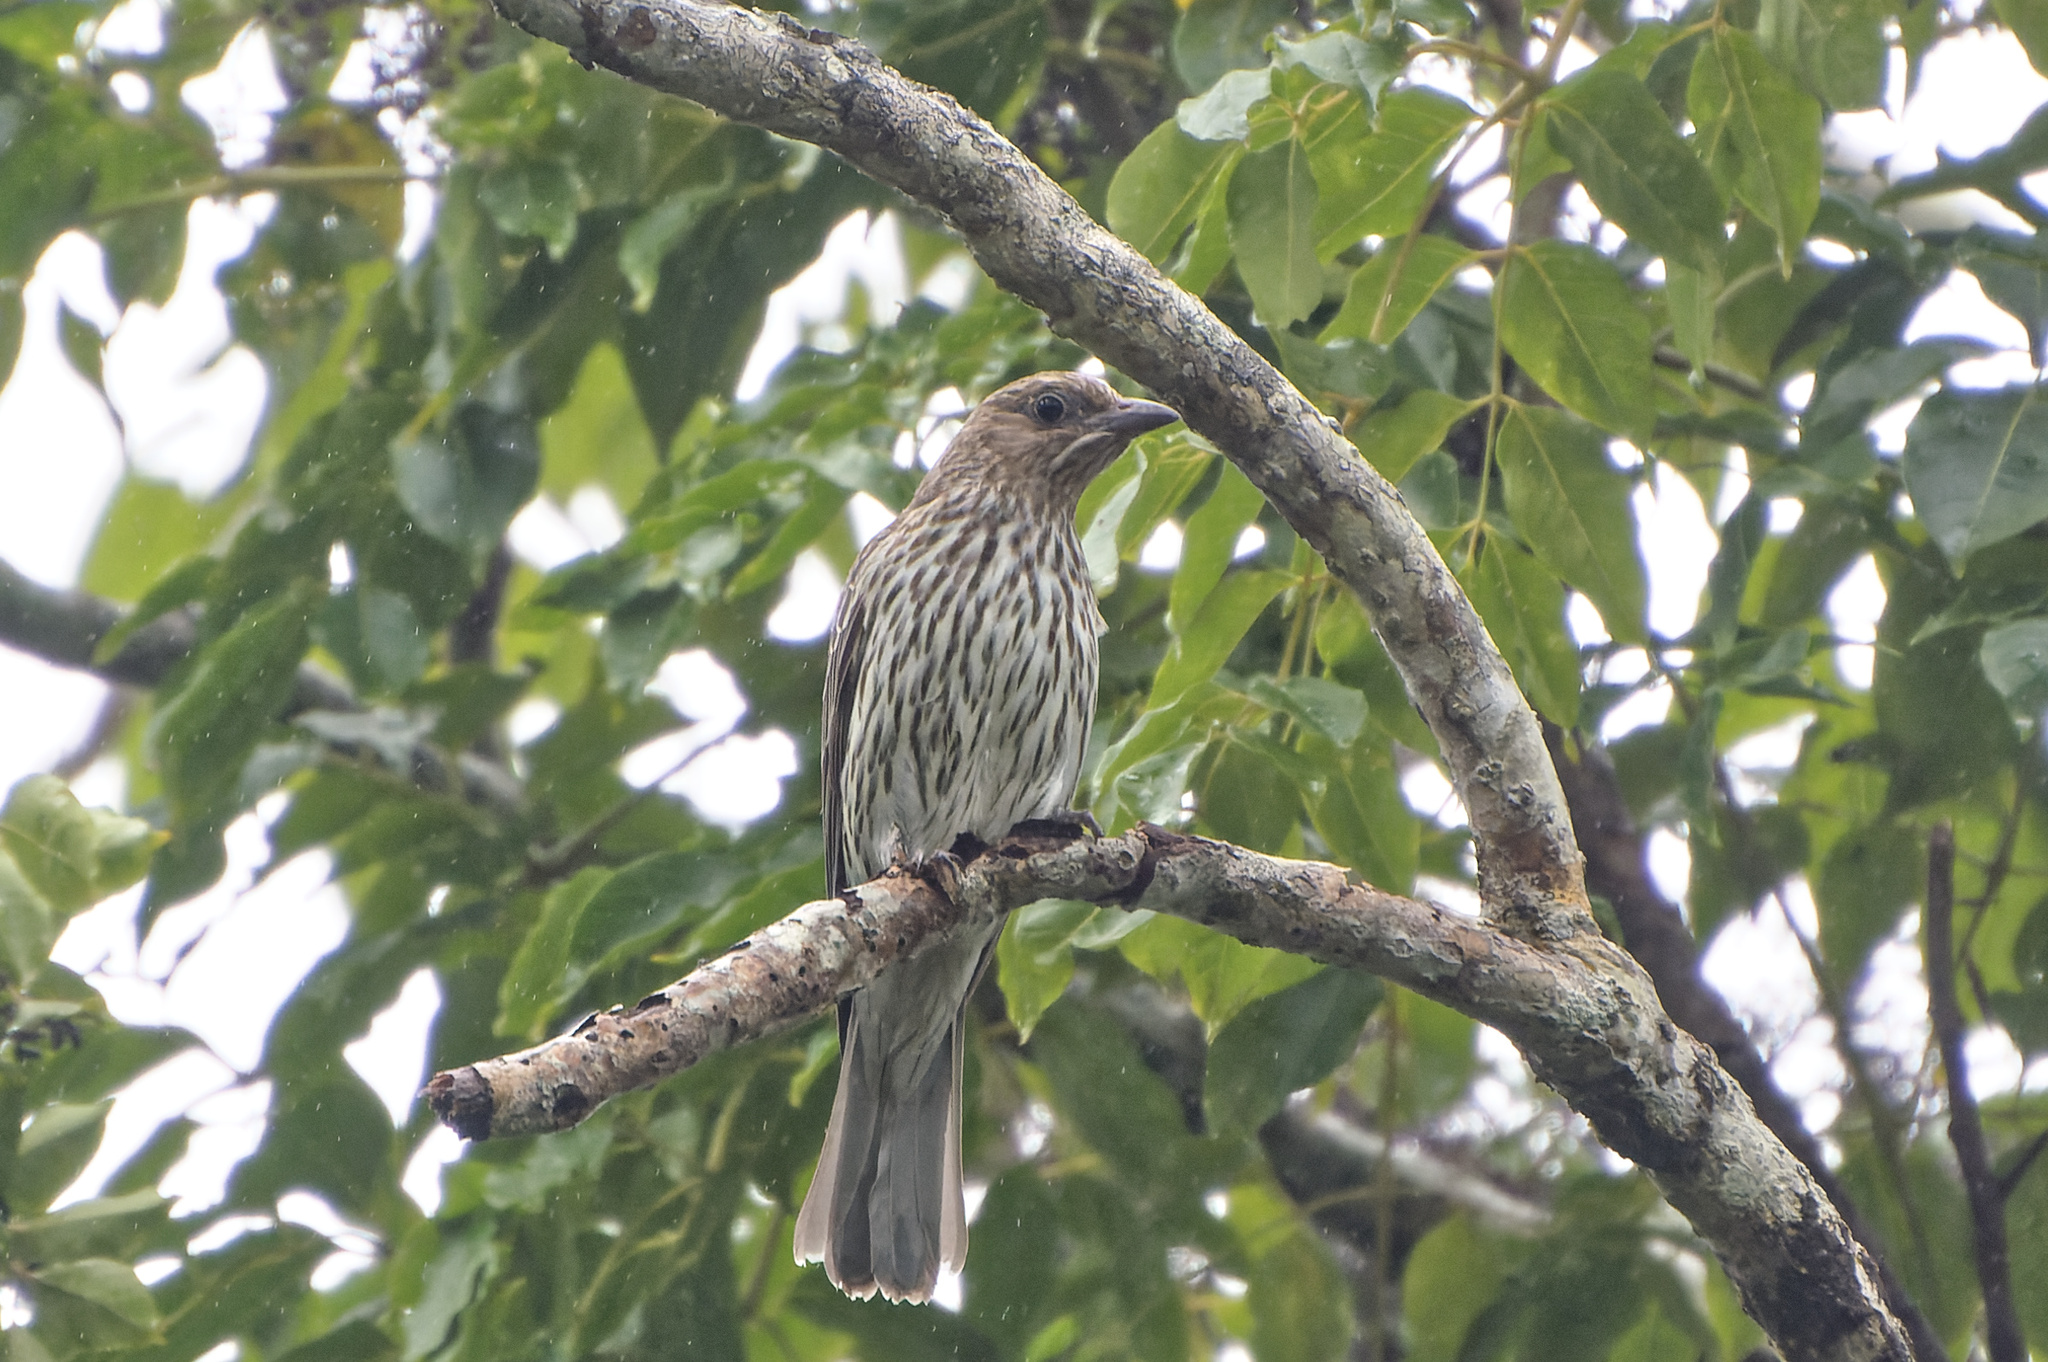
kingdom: Animalia
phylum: Chordata
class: Aves
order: Passeriformes
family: Oriolidae
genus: Sphecotheres
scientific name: Sphecotheres vieilloti
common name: Australasian figbird
